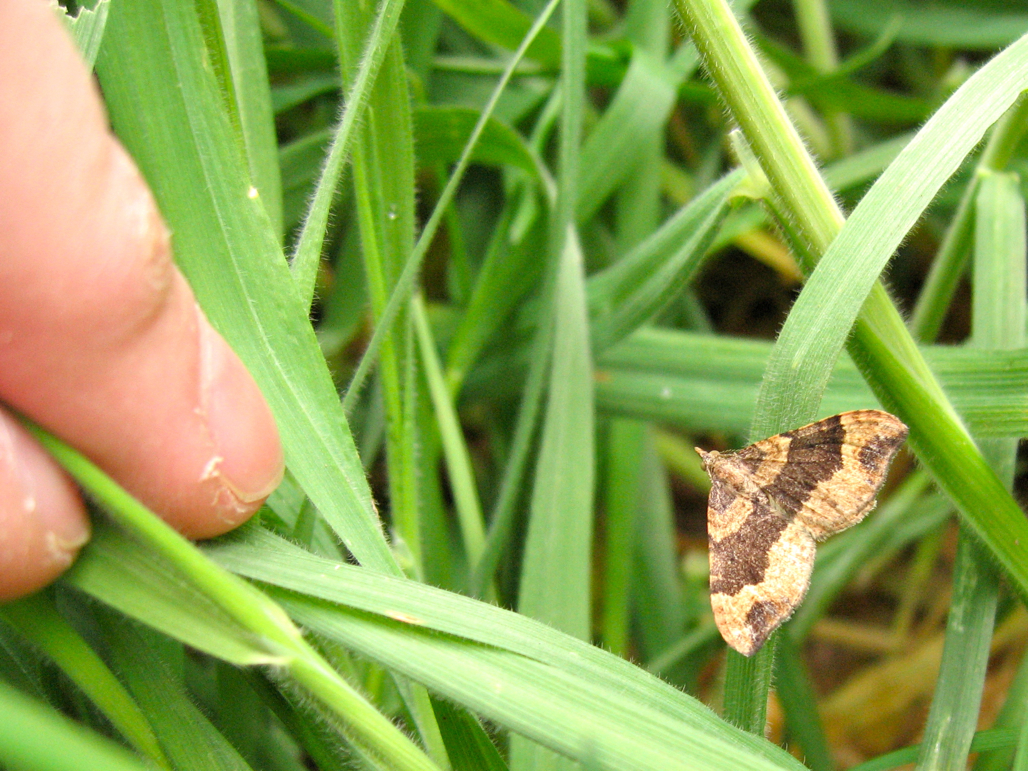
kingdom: Animalia
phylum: Arthropoda
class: Insecta
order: Lepidoptera
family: Geometridae
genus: Homodotis
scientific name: Homodotis megaspilata
